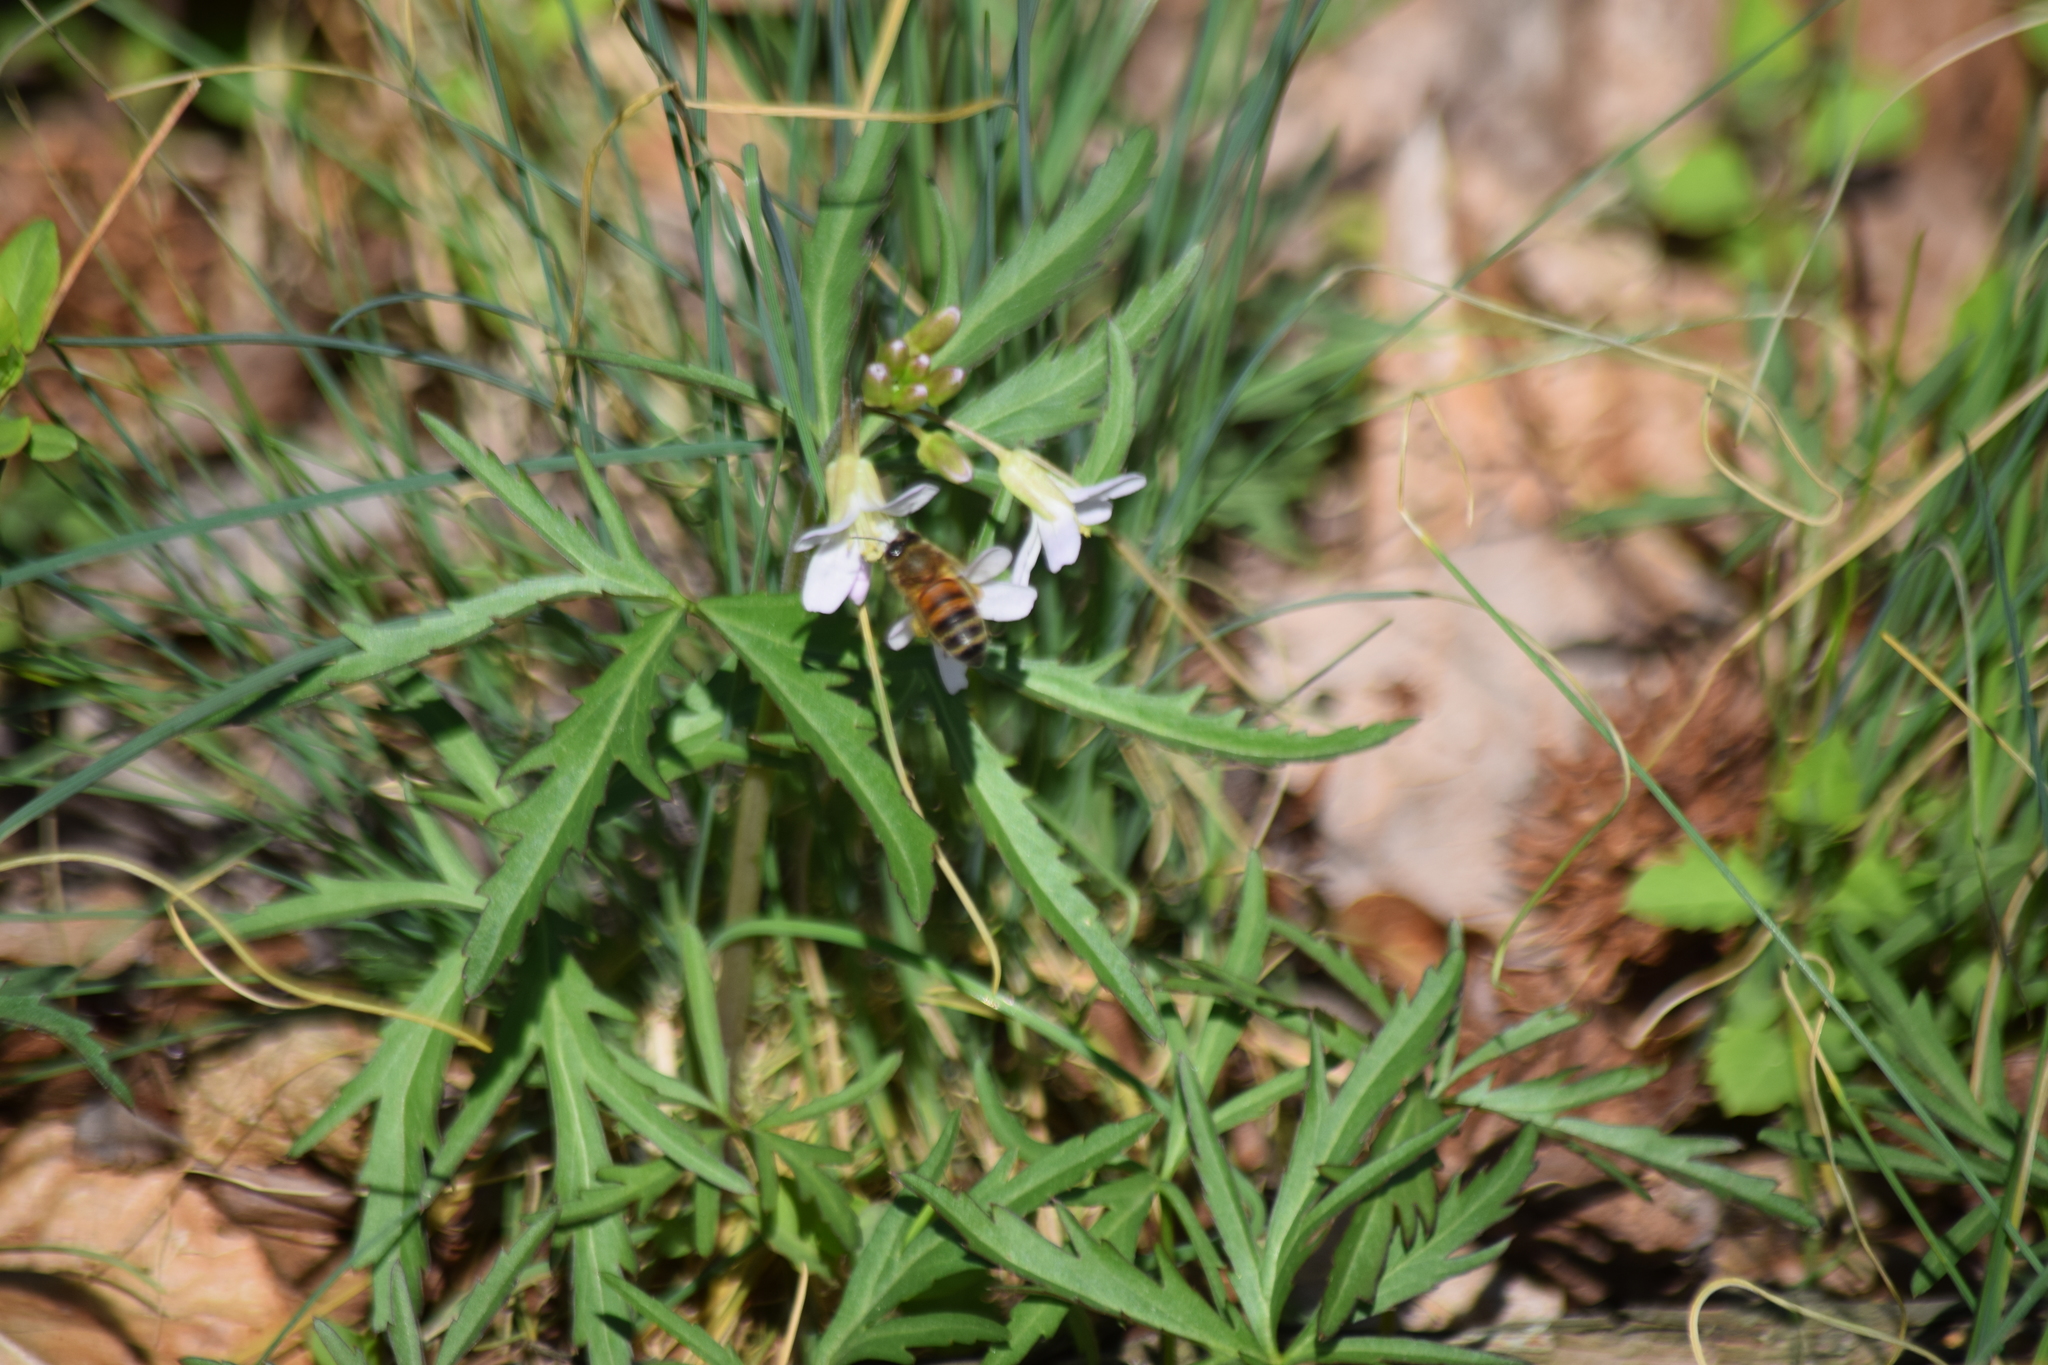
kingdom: Animalia
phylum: Arthropoda
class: Insecta
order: Hymenoptera
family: Apidae
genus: Apis
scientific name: Apis mellifera
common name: Honey bee
